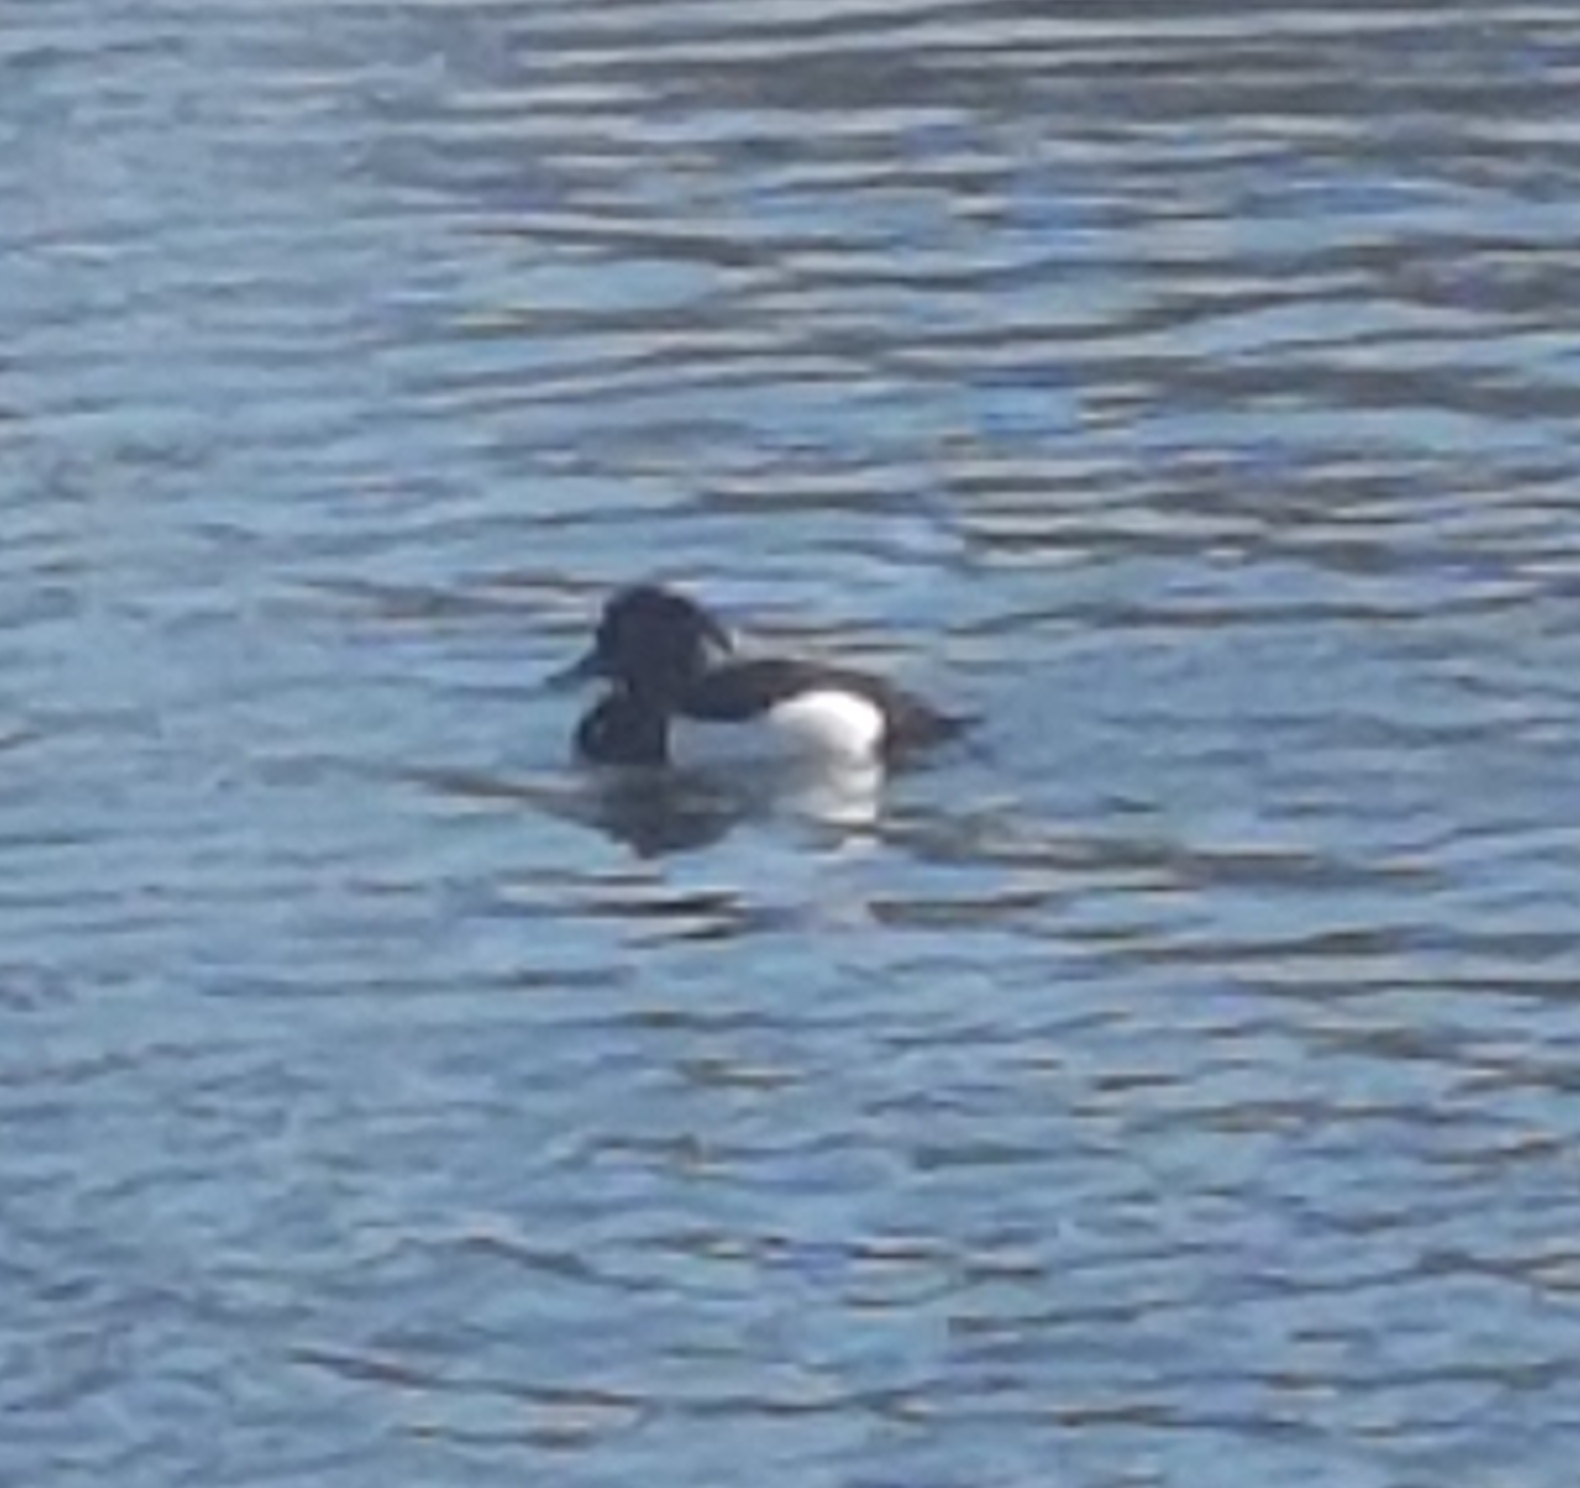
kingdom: Animalia
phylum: Chordata
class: Aves
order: Anseriformes
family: Anatidae
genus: Aythya
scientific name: Aythya fuligula
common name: Tufted duck
